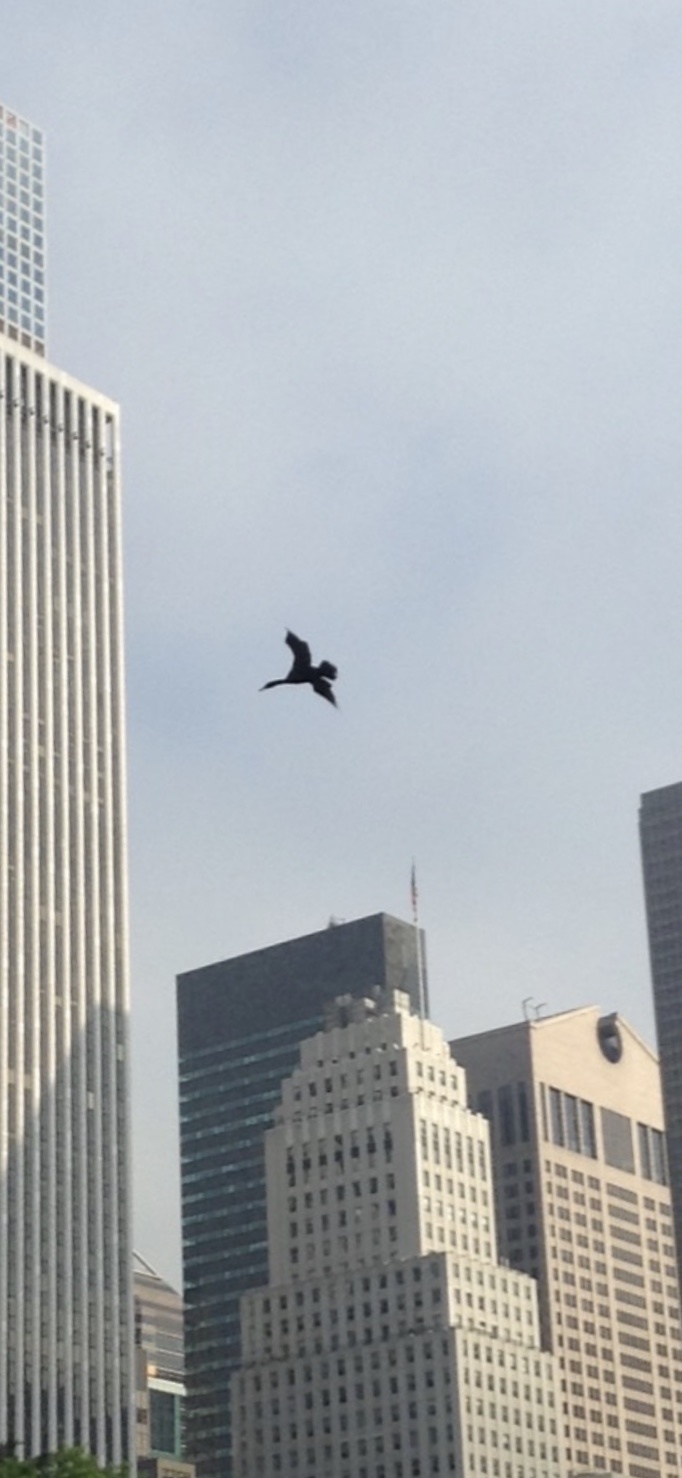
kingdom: Animalia
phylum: Chordata
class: Aves
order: Suliformes
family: Phalacrocoracidae
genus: Phalacrocorax
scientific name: Phalacrocorax auritus
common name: Double-crested cormorant
